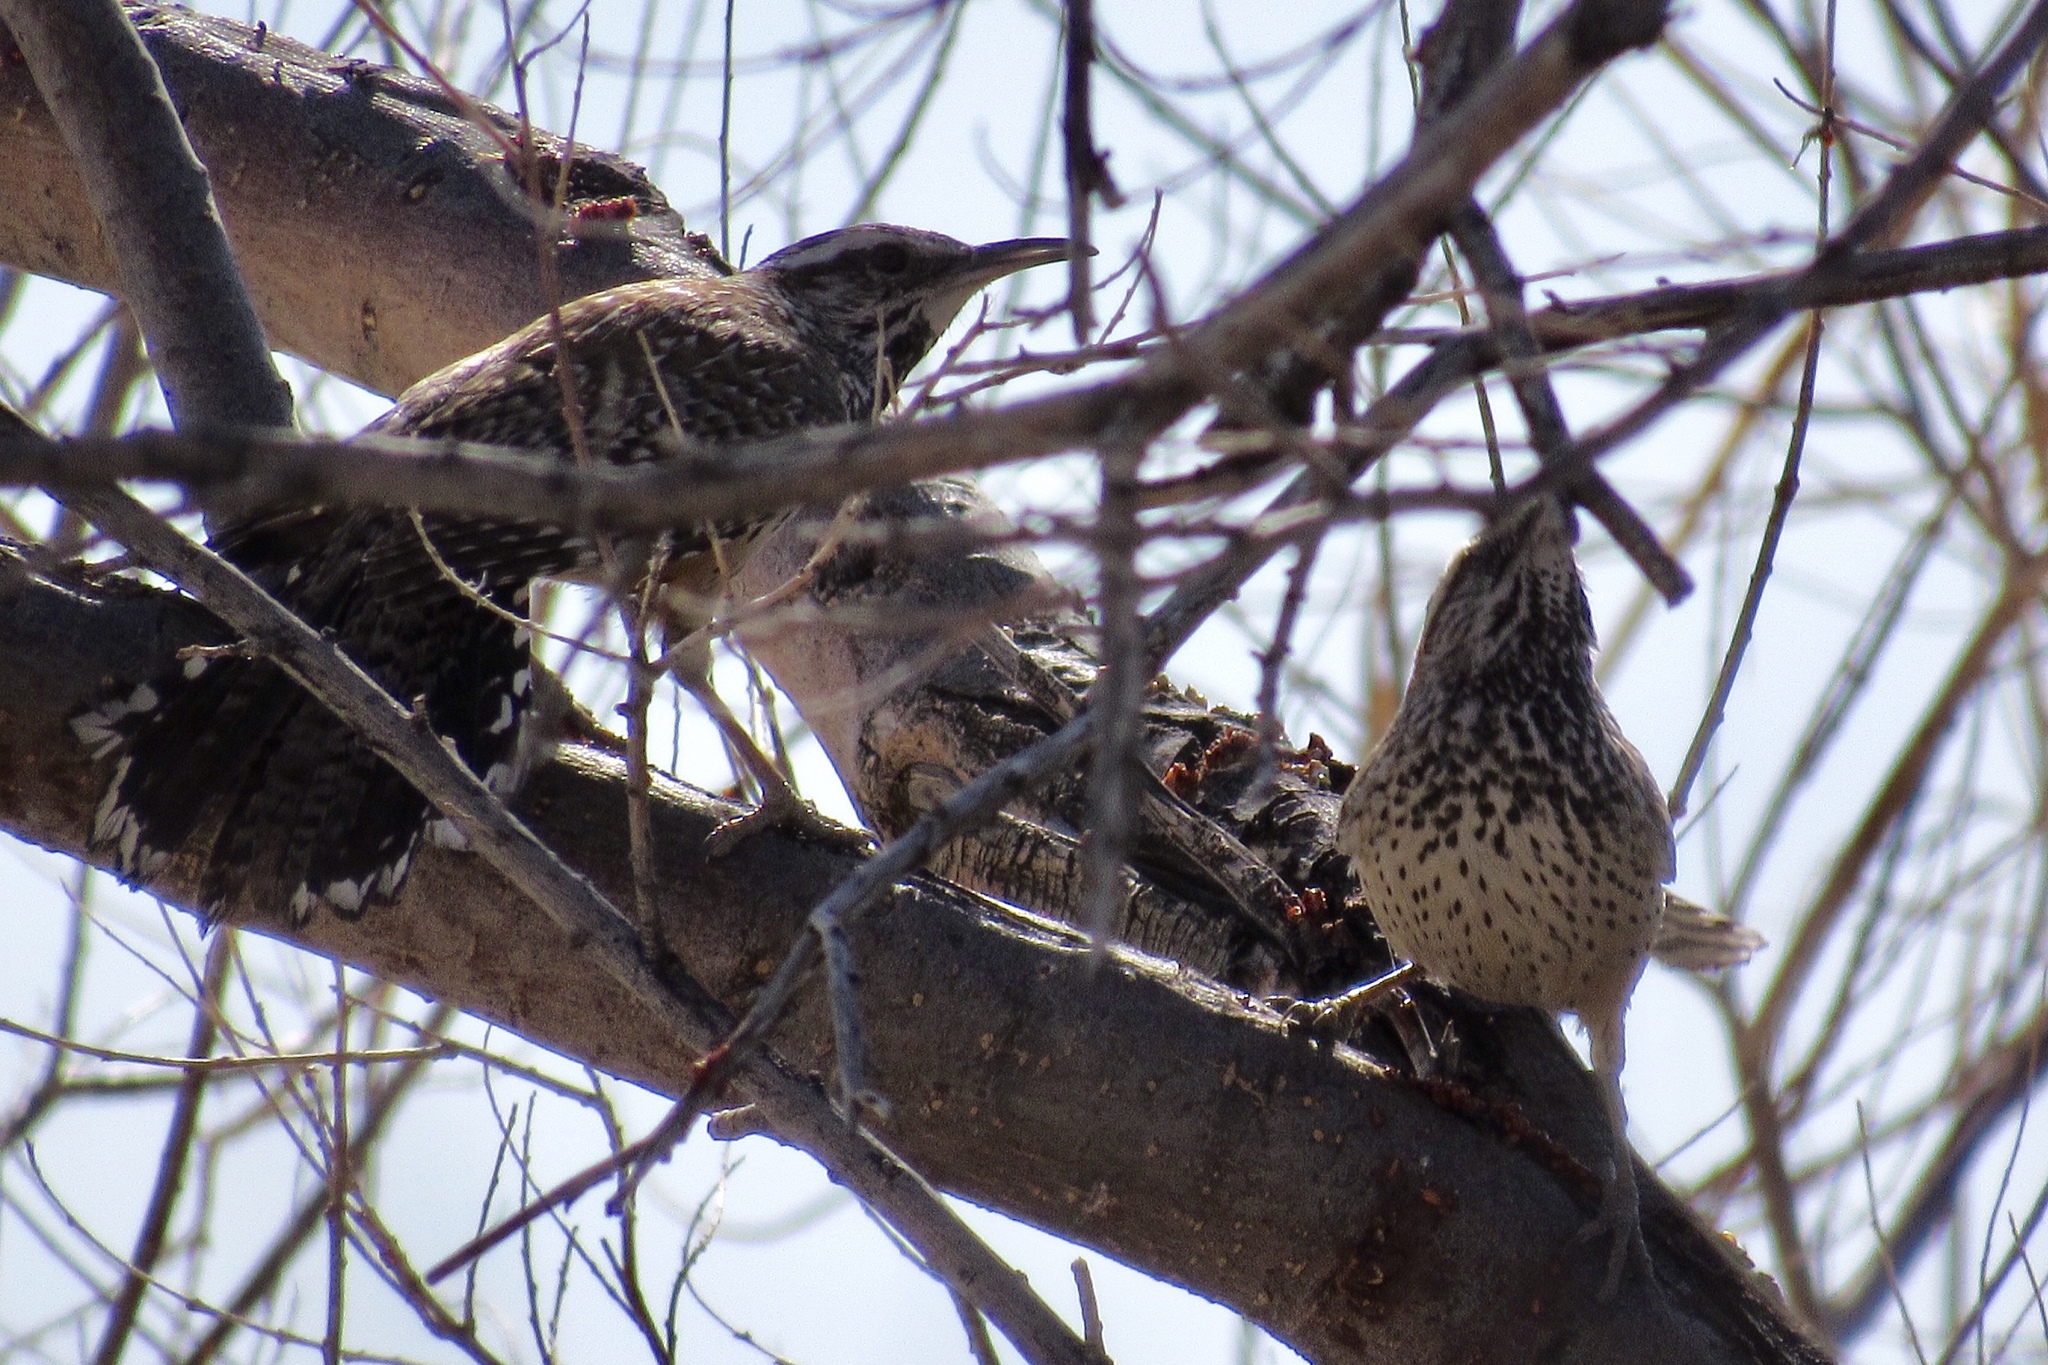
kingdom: Animalia
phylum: Chordata
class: Aves
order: Passeriformes
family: Troglodytidae
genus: Campylorhynchus
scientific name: Campylorhynchus brunneicapillus
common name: Cactus wren
